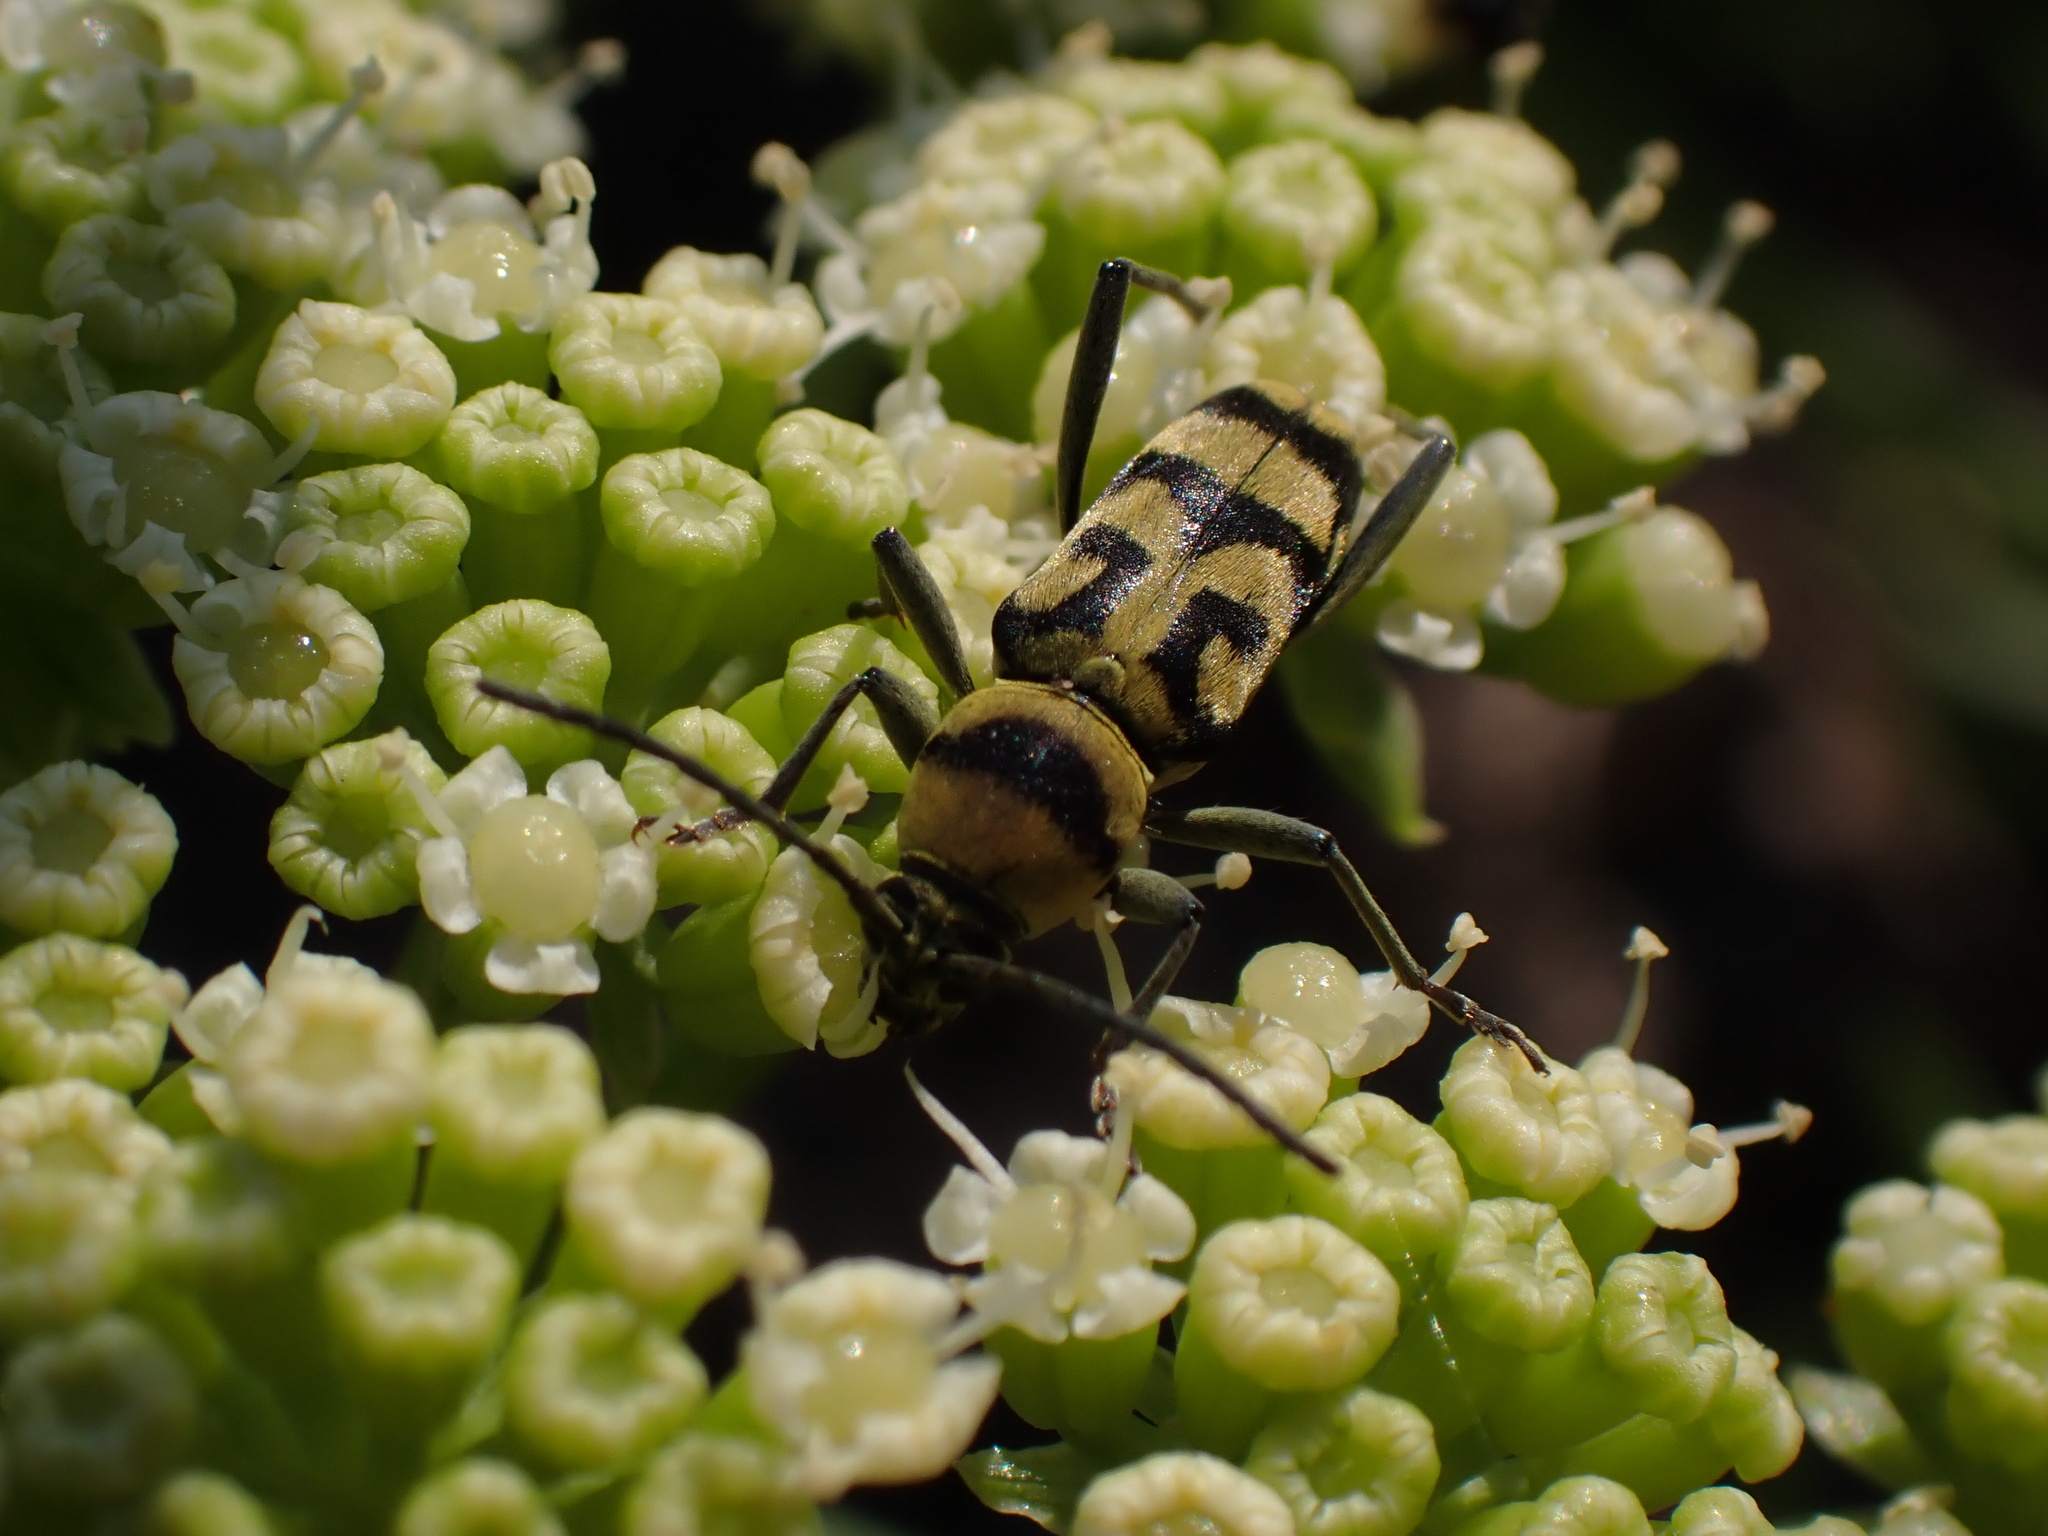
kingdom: Animalia
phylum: Arthropoda
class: Insecta
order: Coleoptera
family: Cerambycidae
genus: Chlorophorus
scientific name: Chlorophorus varius
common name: Grape wood borer
